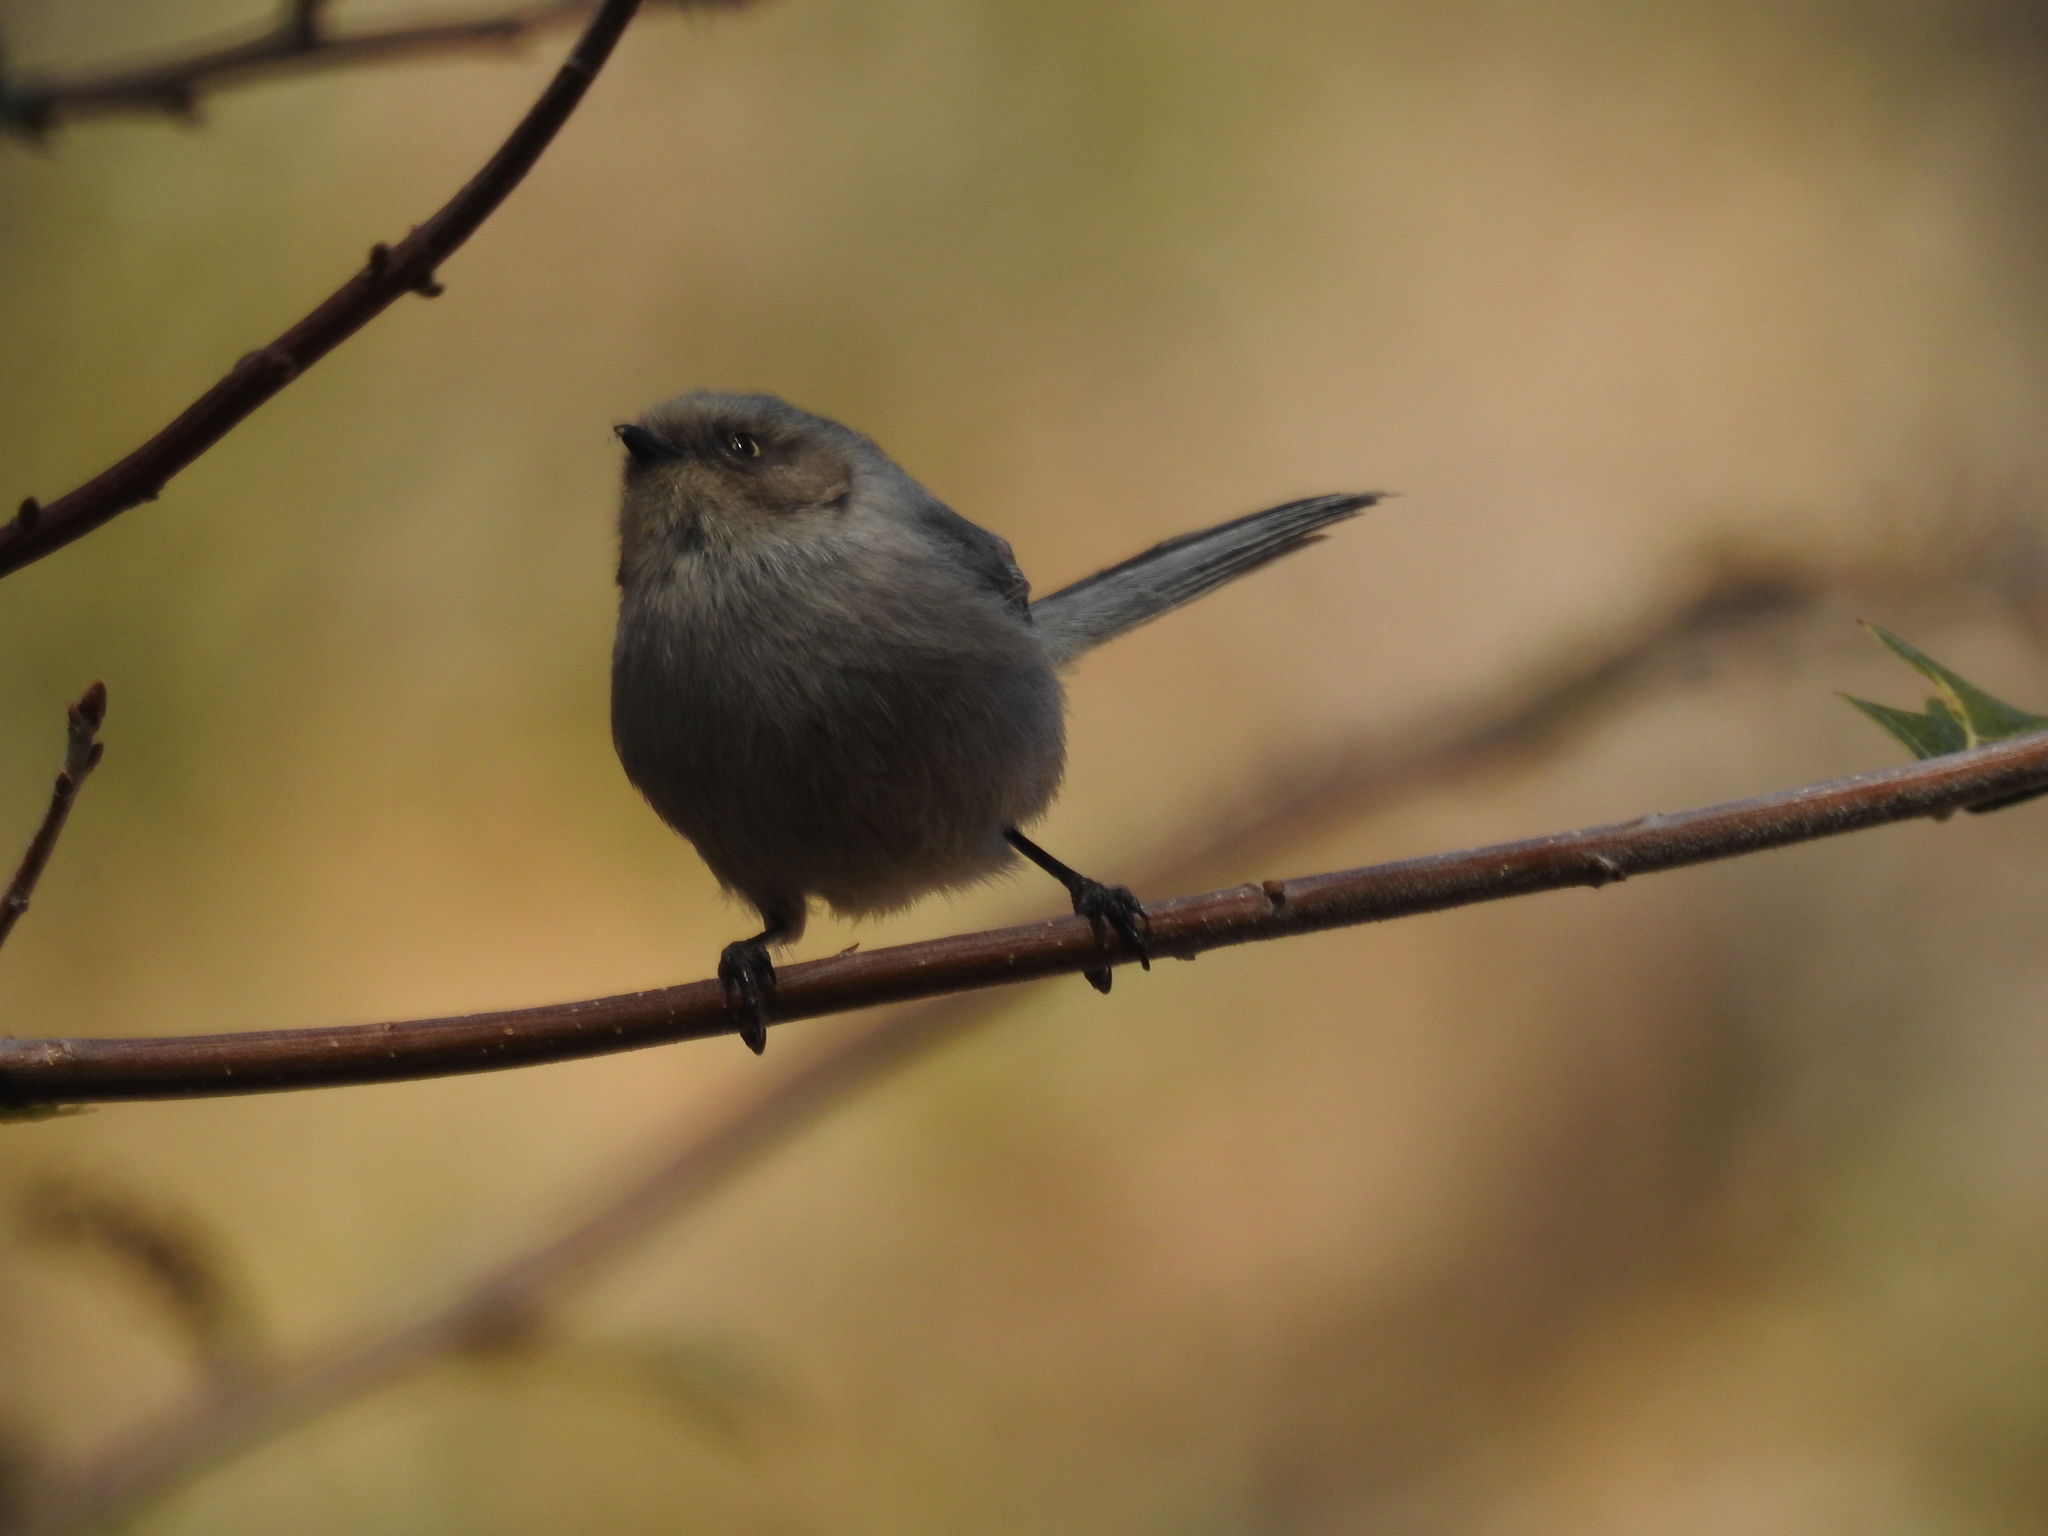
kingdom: Animalia
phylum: Chordata
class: Aves
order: Passeriformes
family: Aegithalidae
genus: Psaltriparus
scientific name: Psaltriparus minimus
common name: American bushtit
